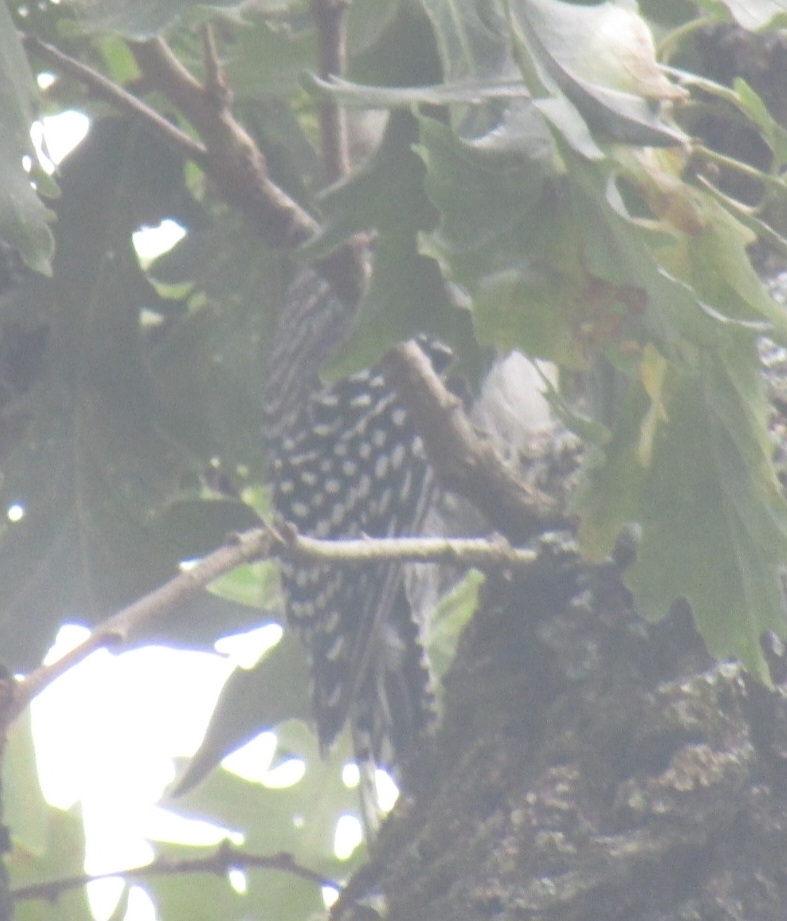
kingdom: Animalia
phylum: Chordata
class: Aves
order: Piciformes
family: Picidae
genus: Melanerpes
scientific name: Melanerpes carolinus
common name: Red-bellied woodpecker
